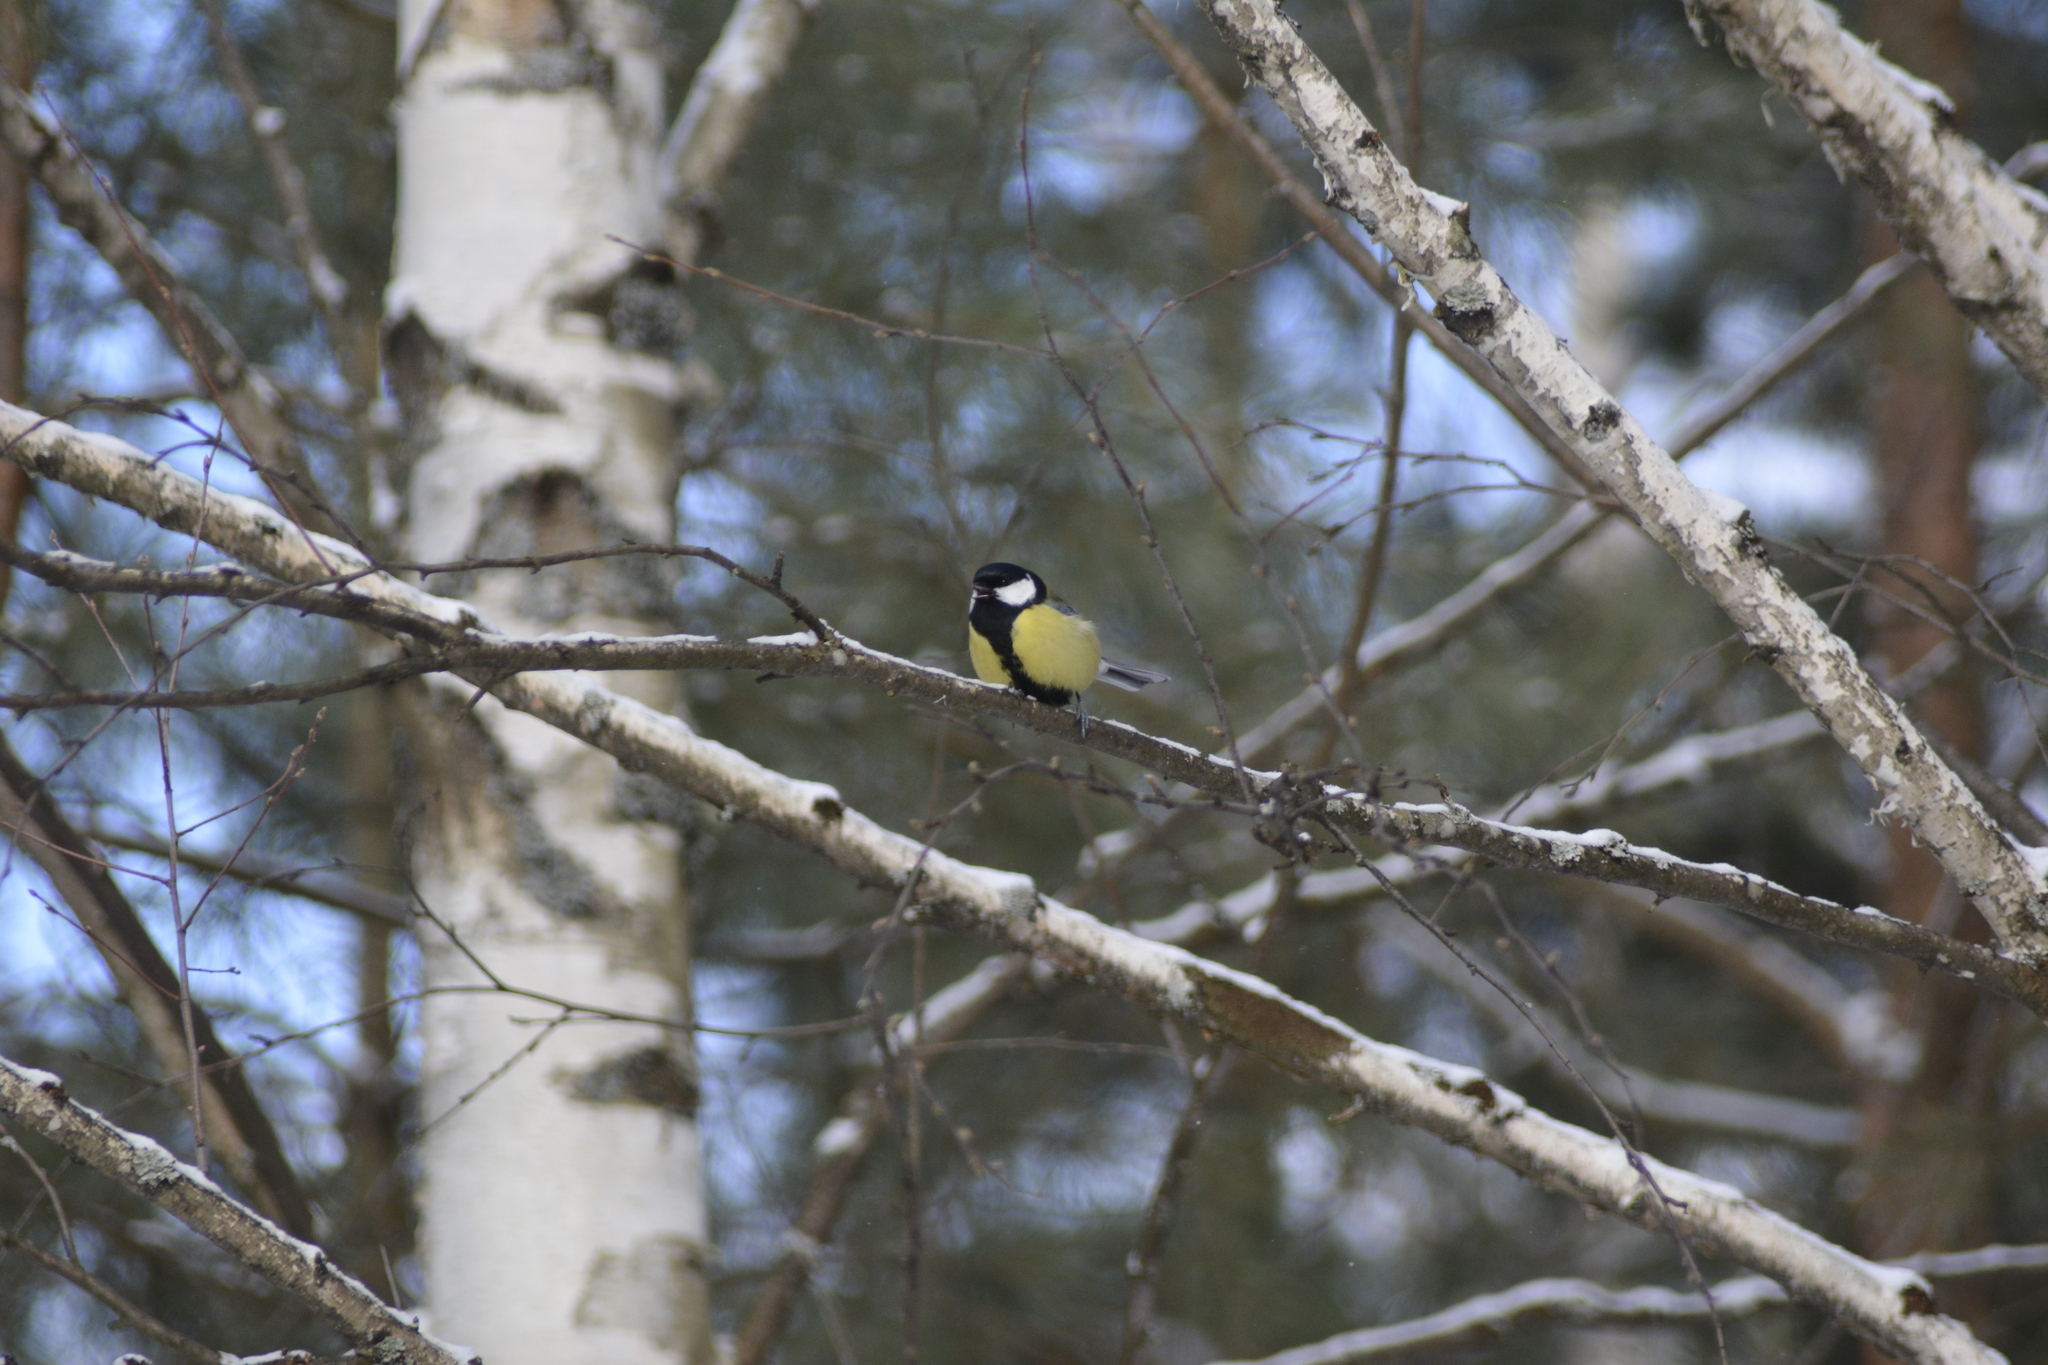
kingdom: Animalia
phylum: Chordata
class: Aves
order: Passeriformes
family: Paridae
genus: Parus
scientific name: Parus major
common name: Great tit
